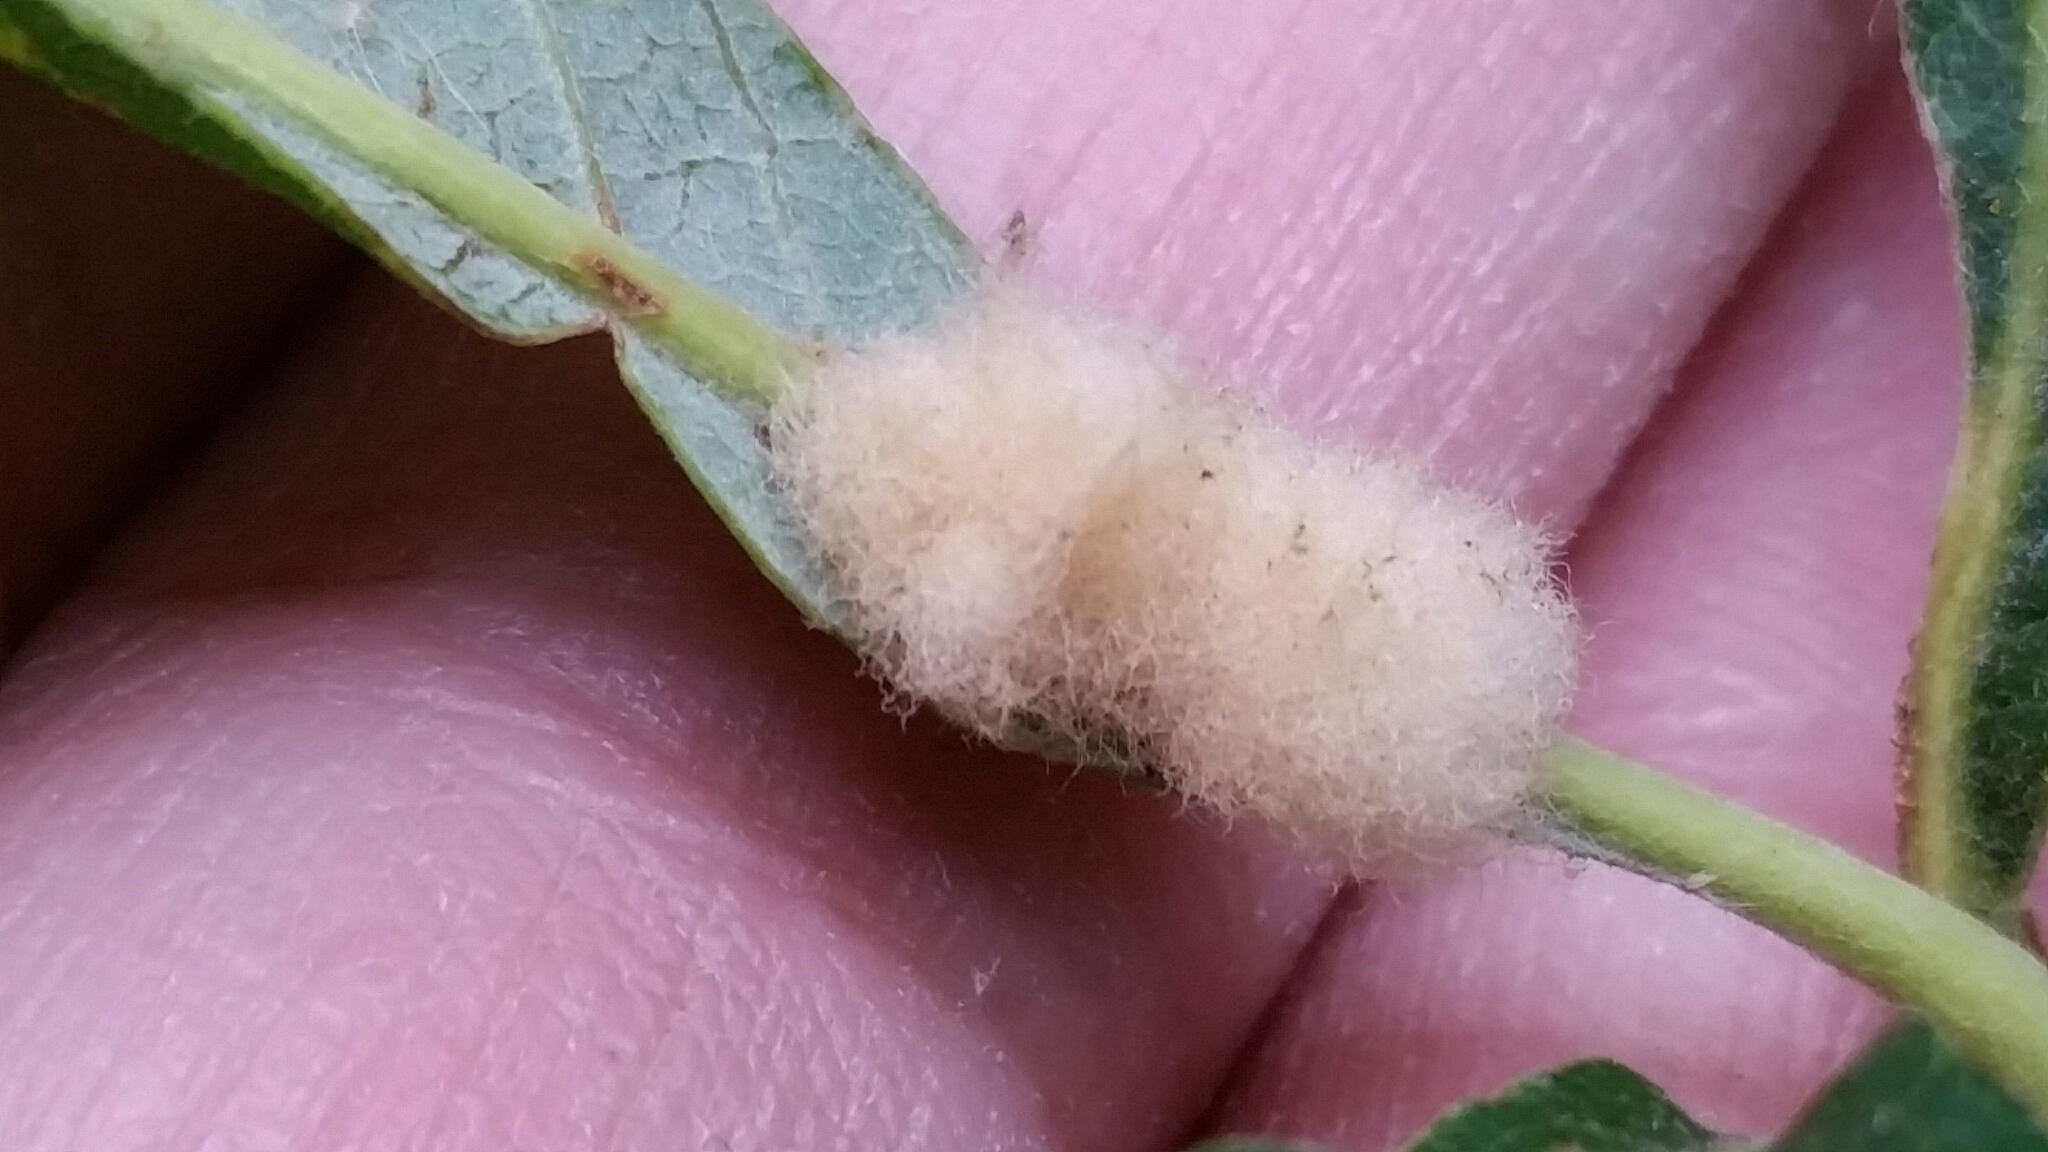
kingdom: Animalia
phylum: Arthropoda
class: Insecta
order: Hymenoptera
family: Cynipidae
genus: Andricus
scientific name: Andricus Druon ignotum
